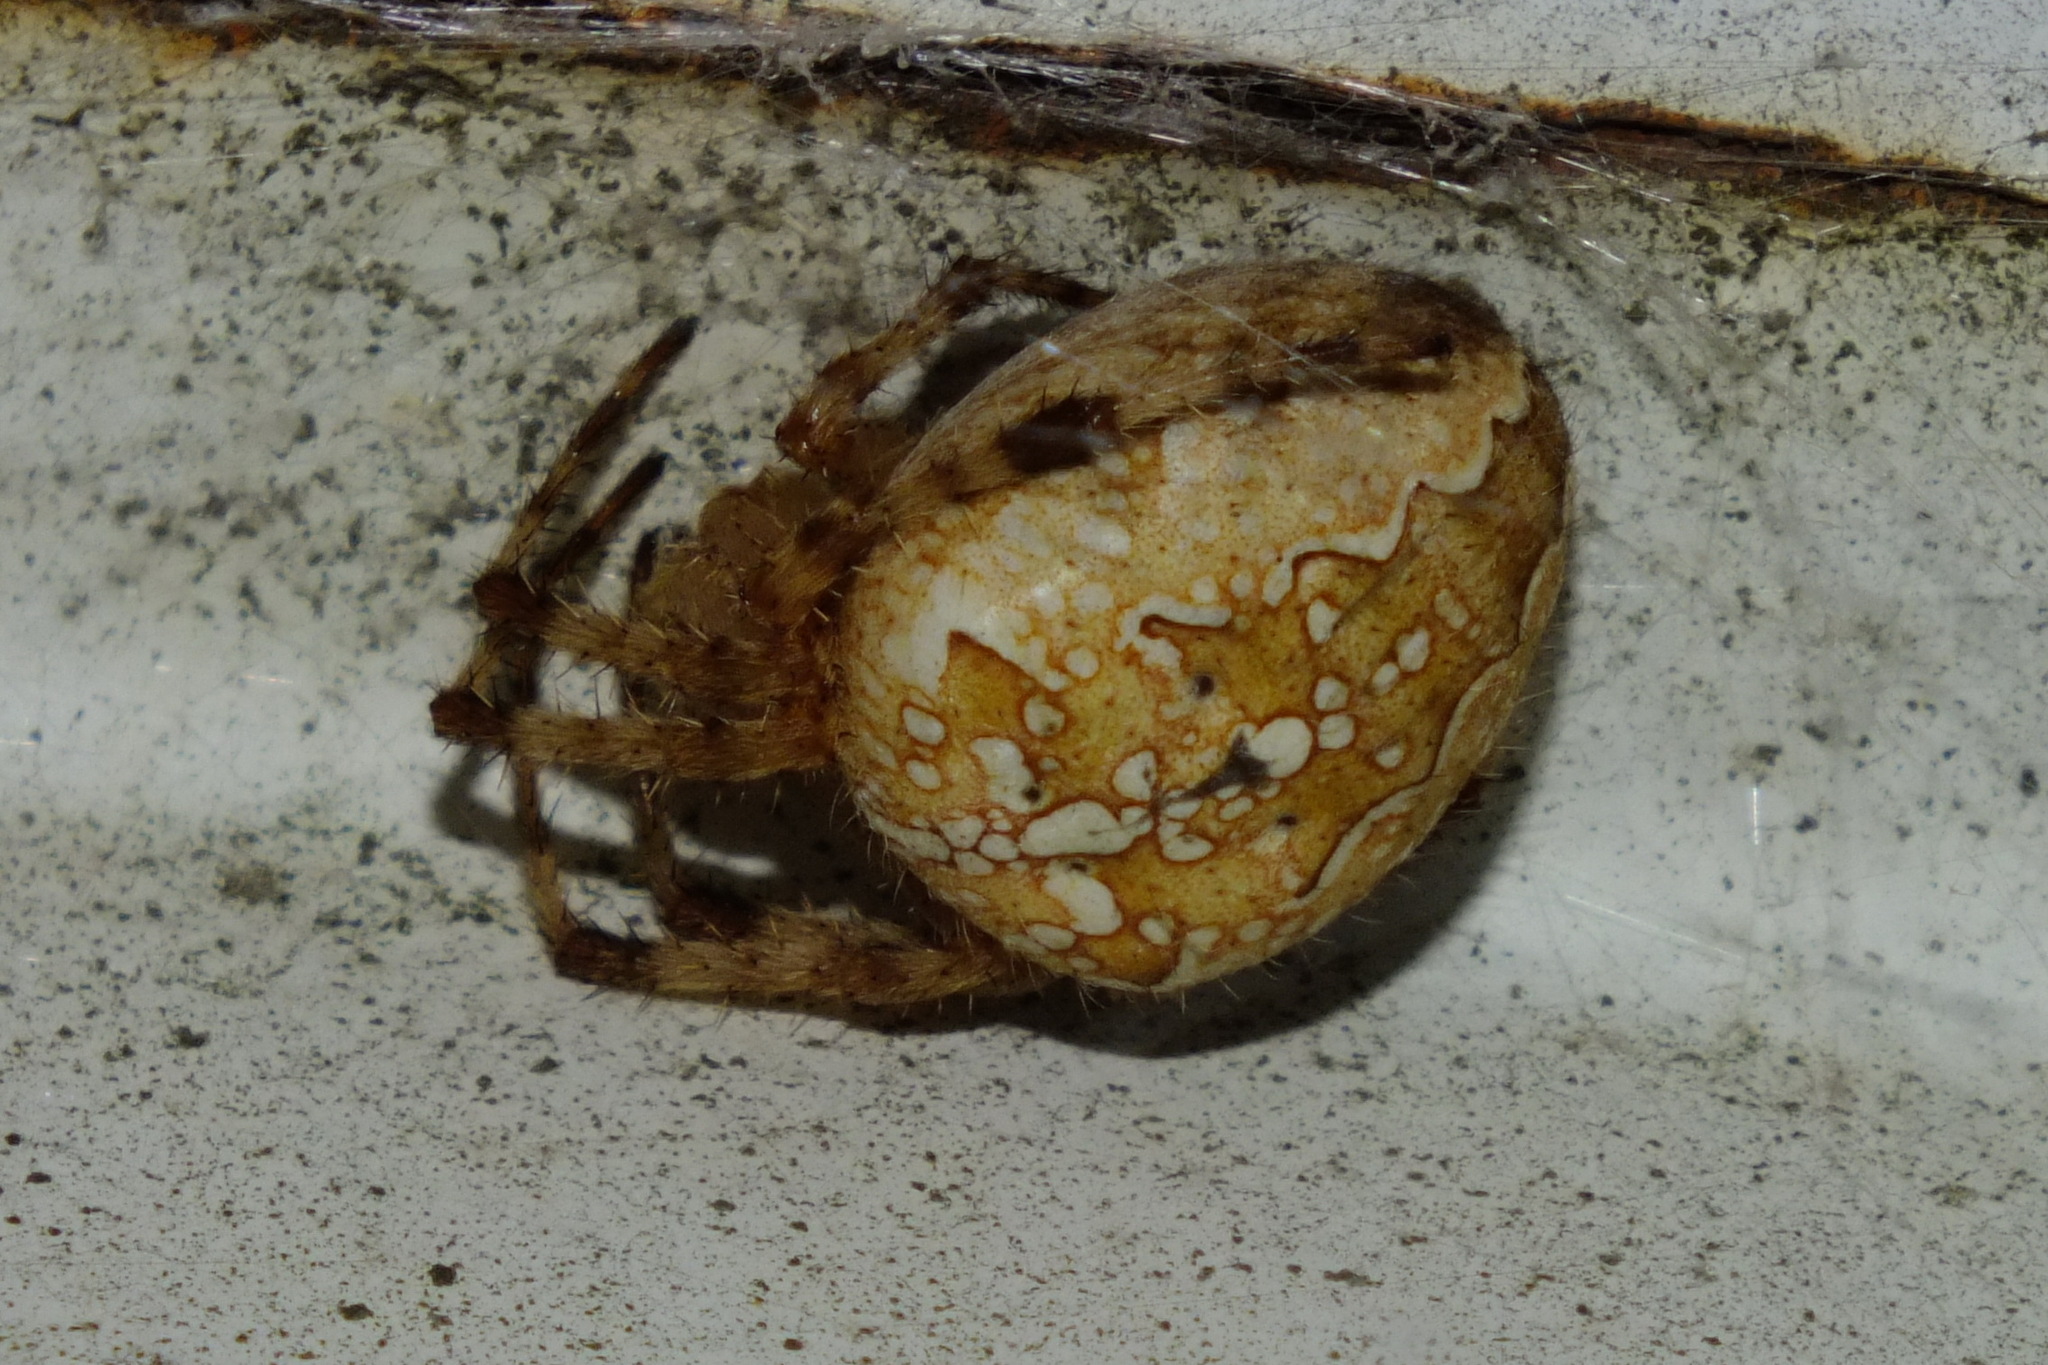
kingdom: Animalia
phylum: Arthropoda
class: Arachnida
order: Araneae
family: Araneidae
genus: Araneus
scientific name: Araneus diadematus
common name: Cross orbweaver
